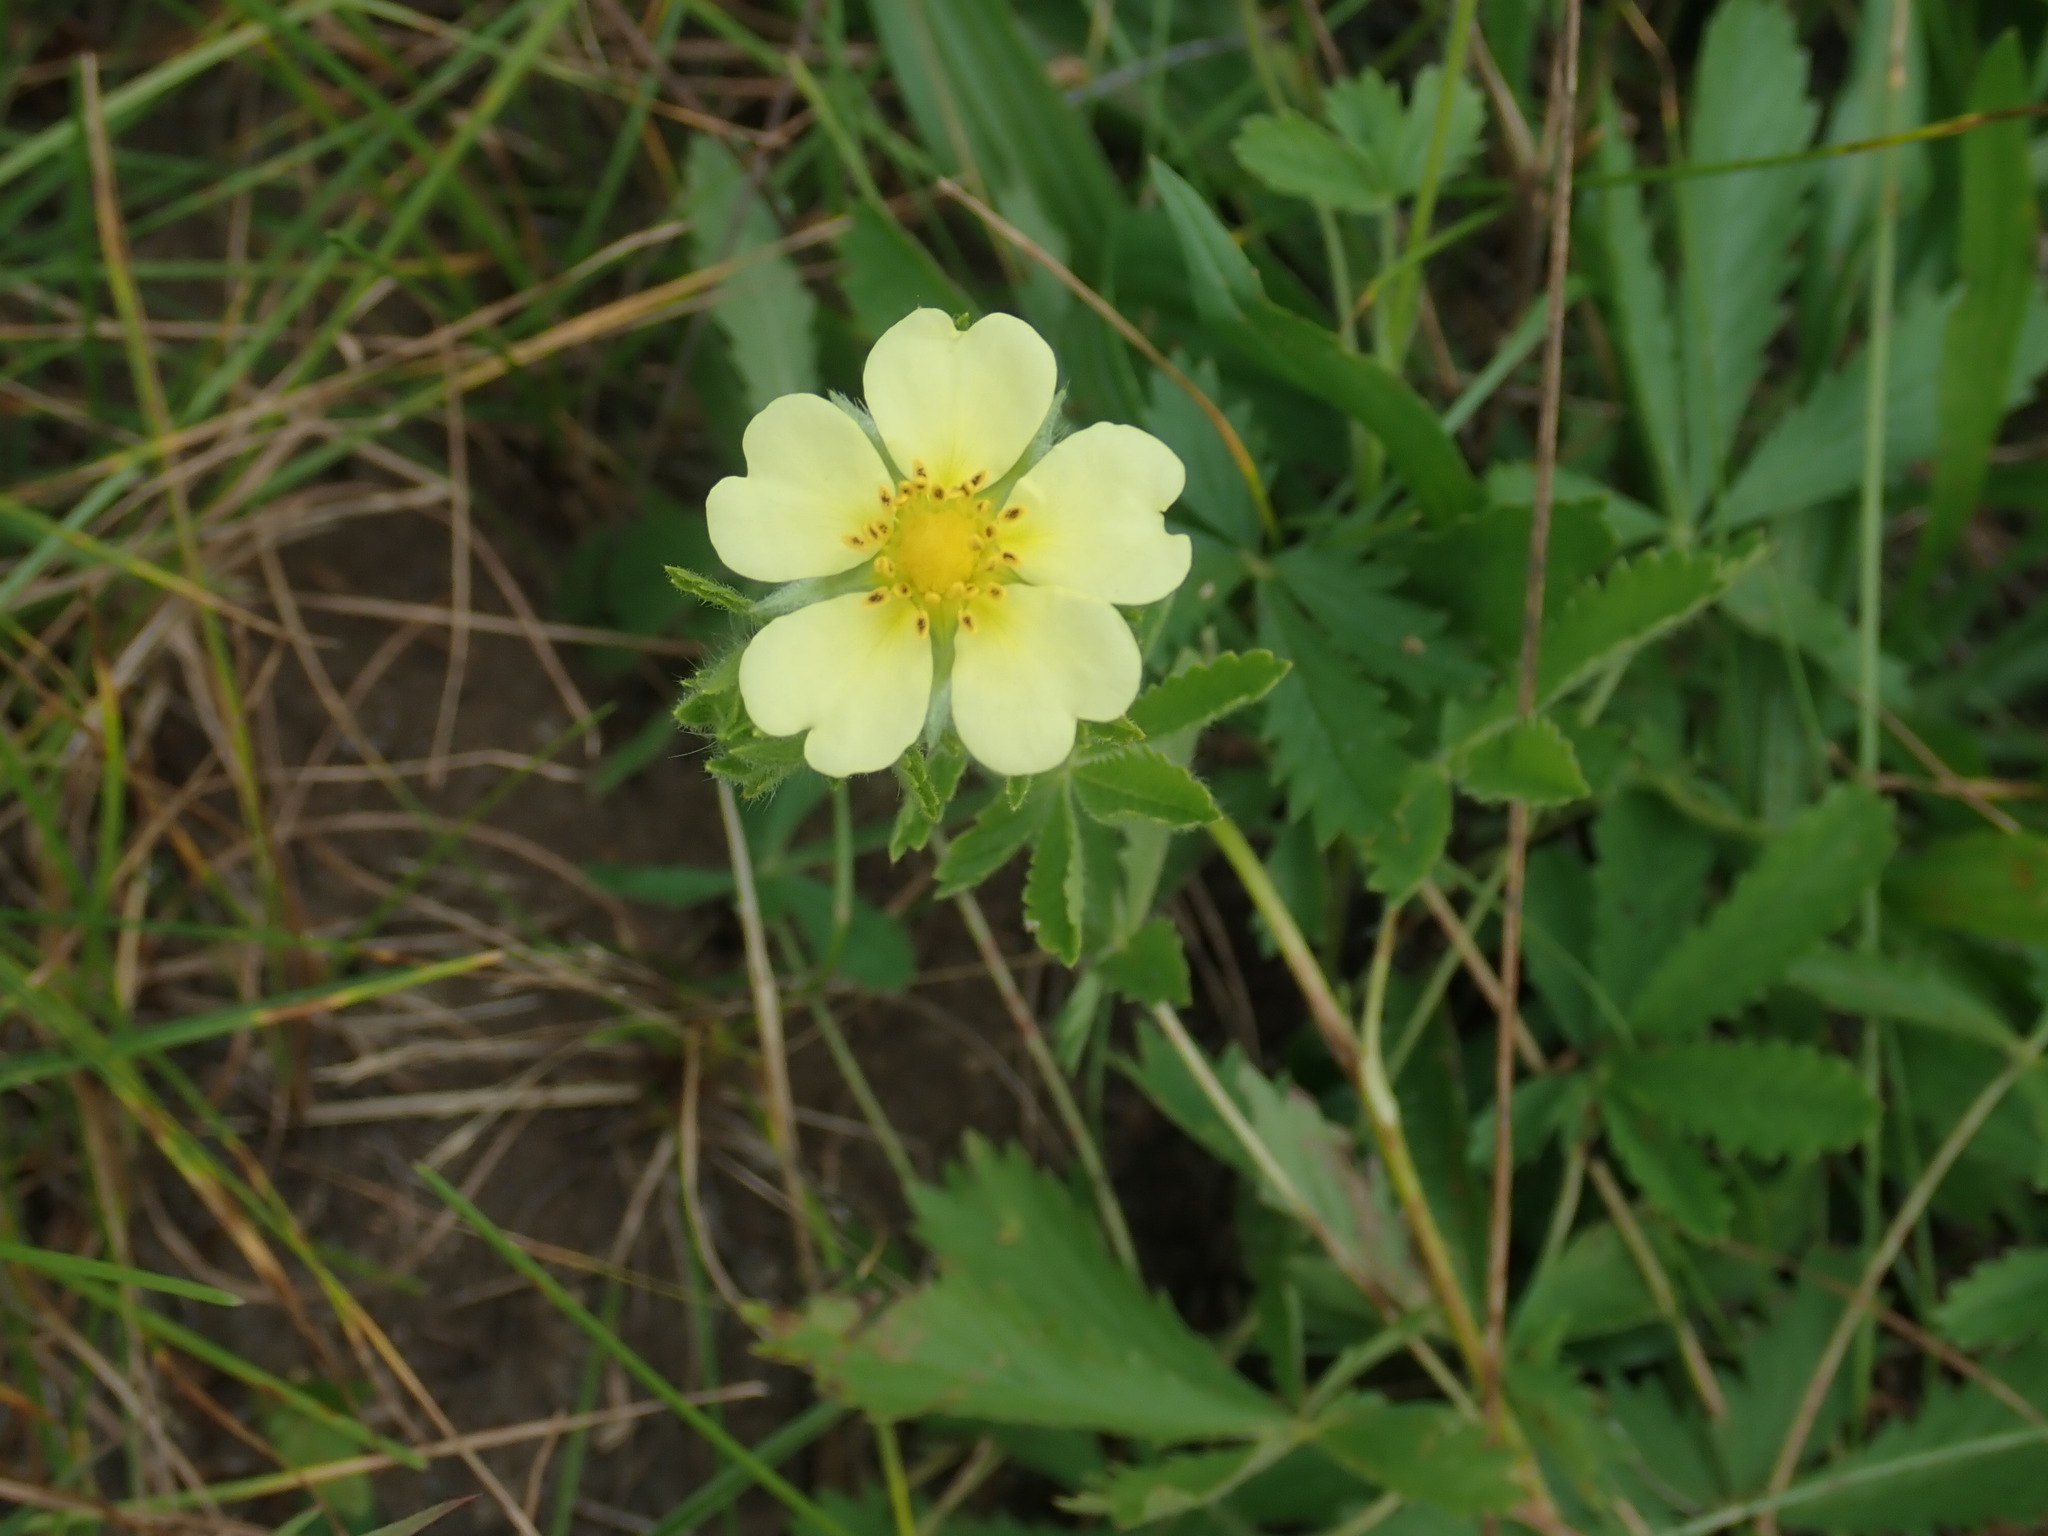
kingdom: Plantae
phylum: Tracheophyta
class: Magnoliopsida
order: Rosales
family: Rosaceae
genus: Potentilla
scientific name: Potentilla recta
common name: Sulphur cinquefoil
